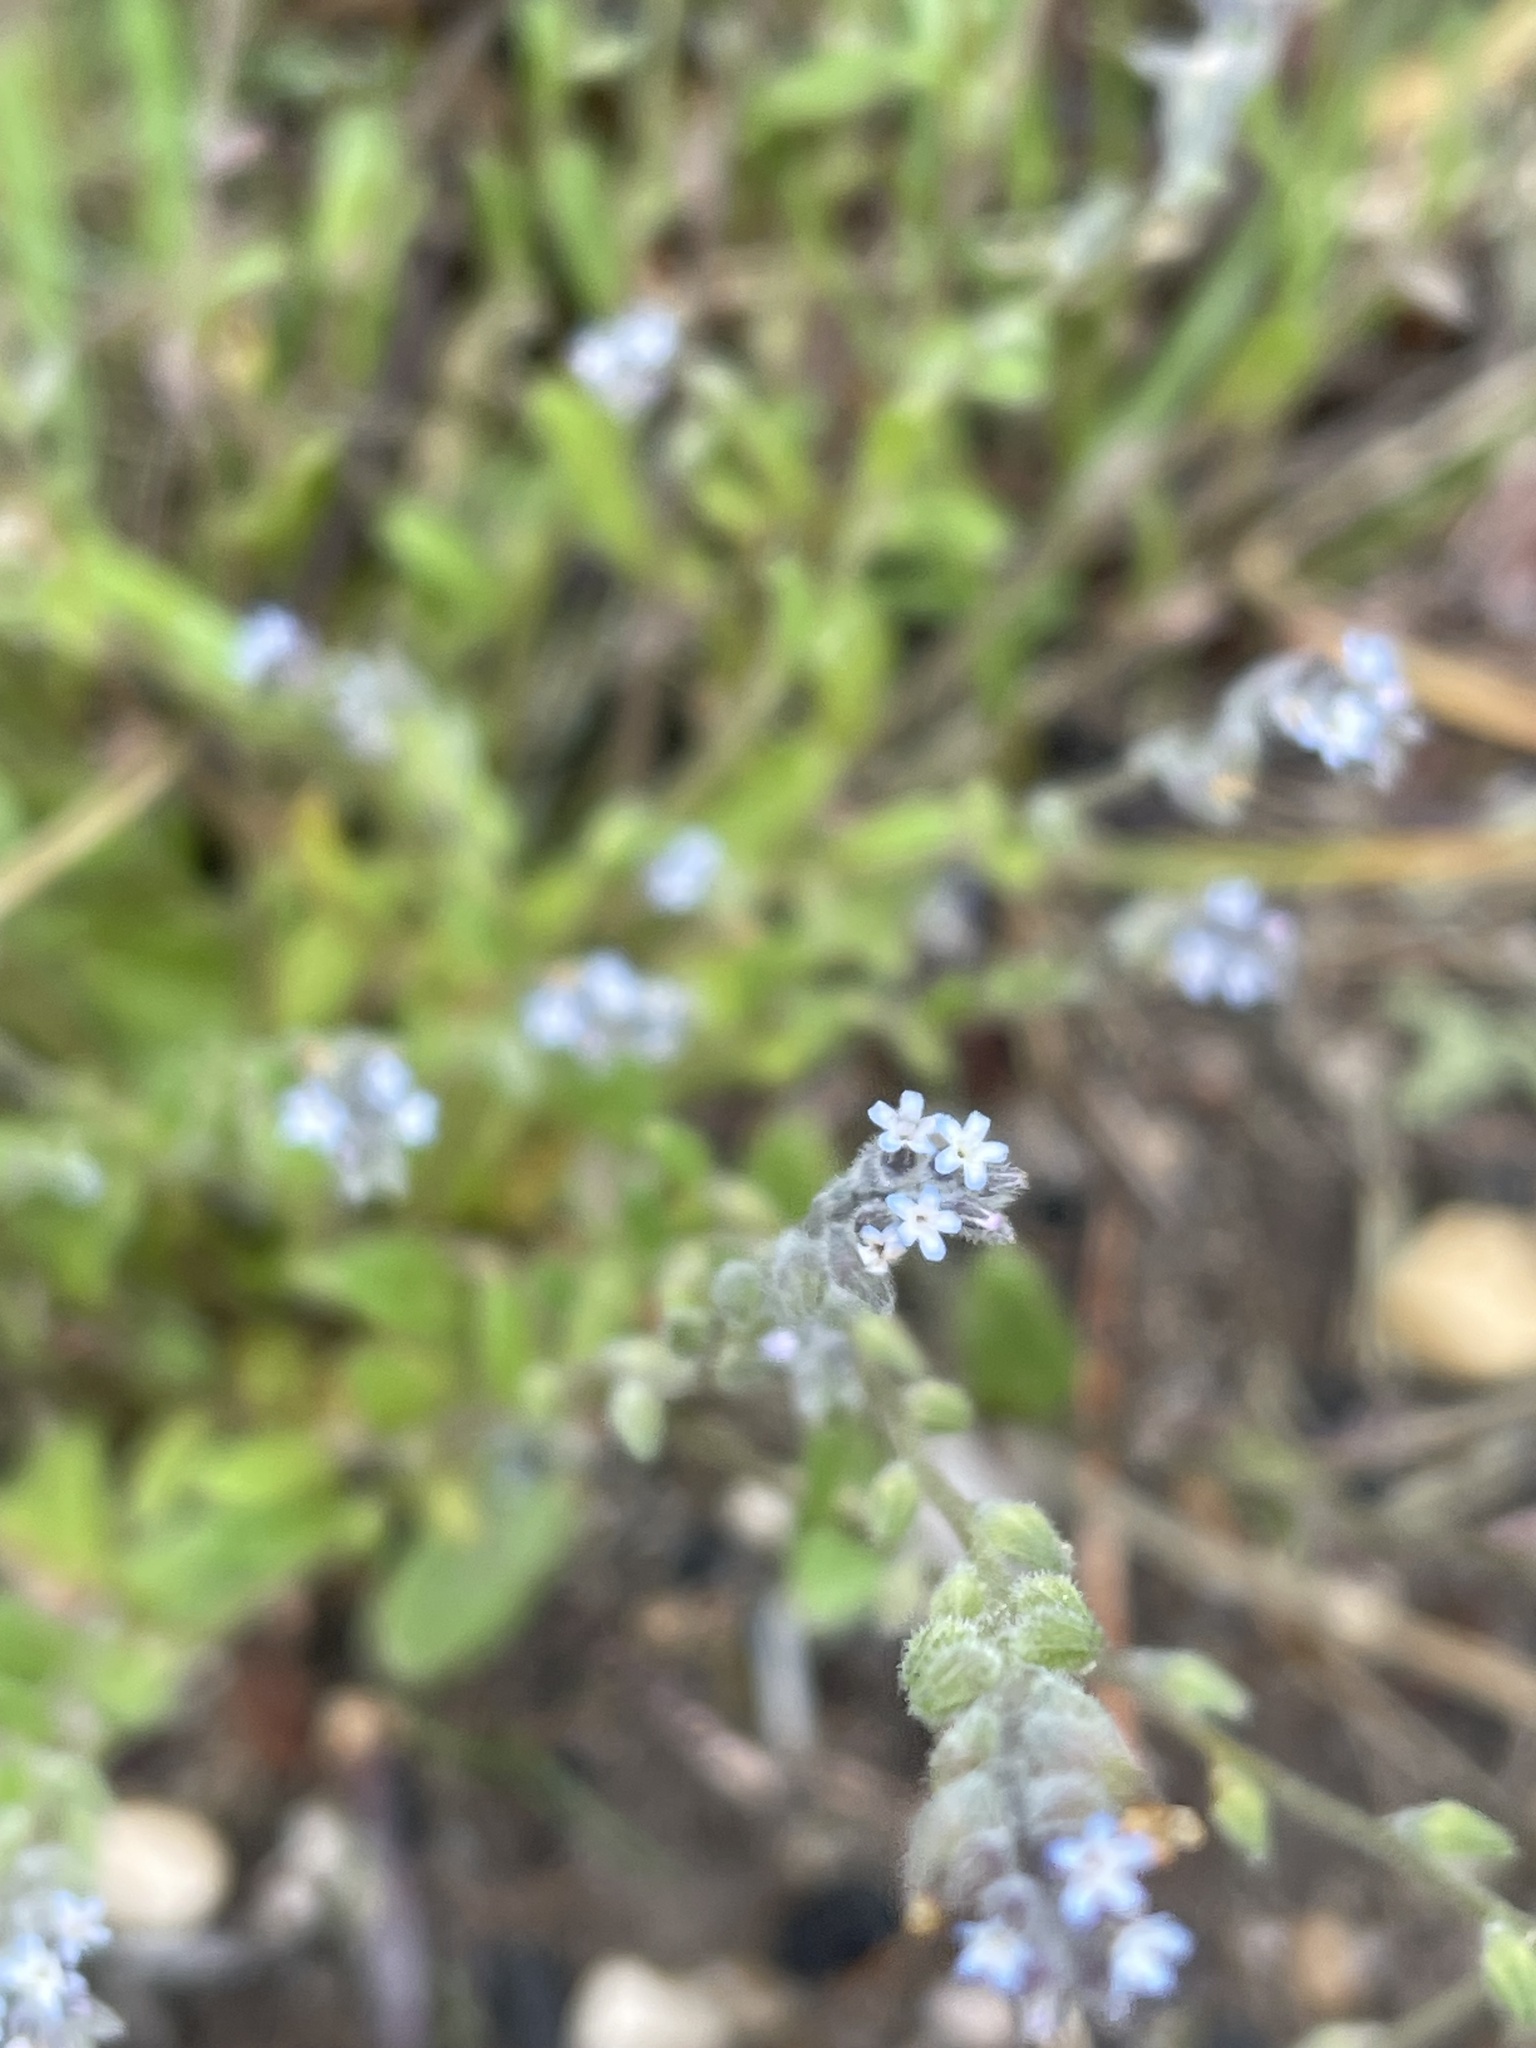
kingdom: Plantae
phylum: Tracheophyta
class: Magnoliopsida
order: Boraginales
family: Boraginaceae
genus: Myosotis
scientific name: Myosotis stricta
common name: Strict forget-me-not
